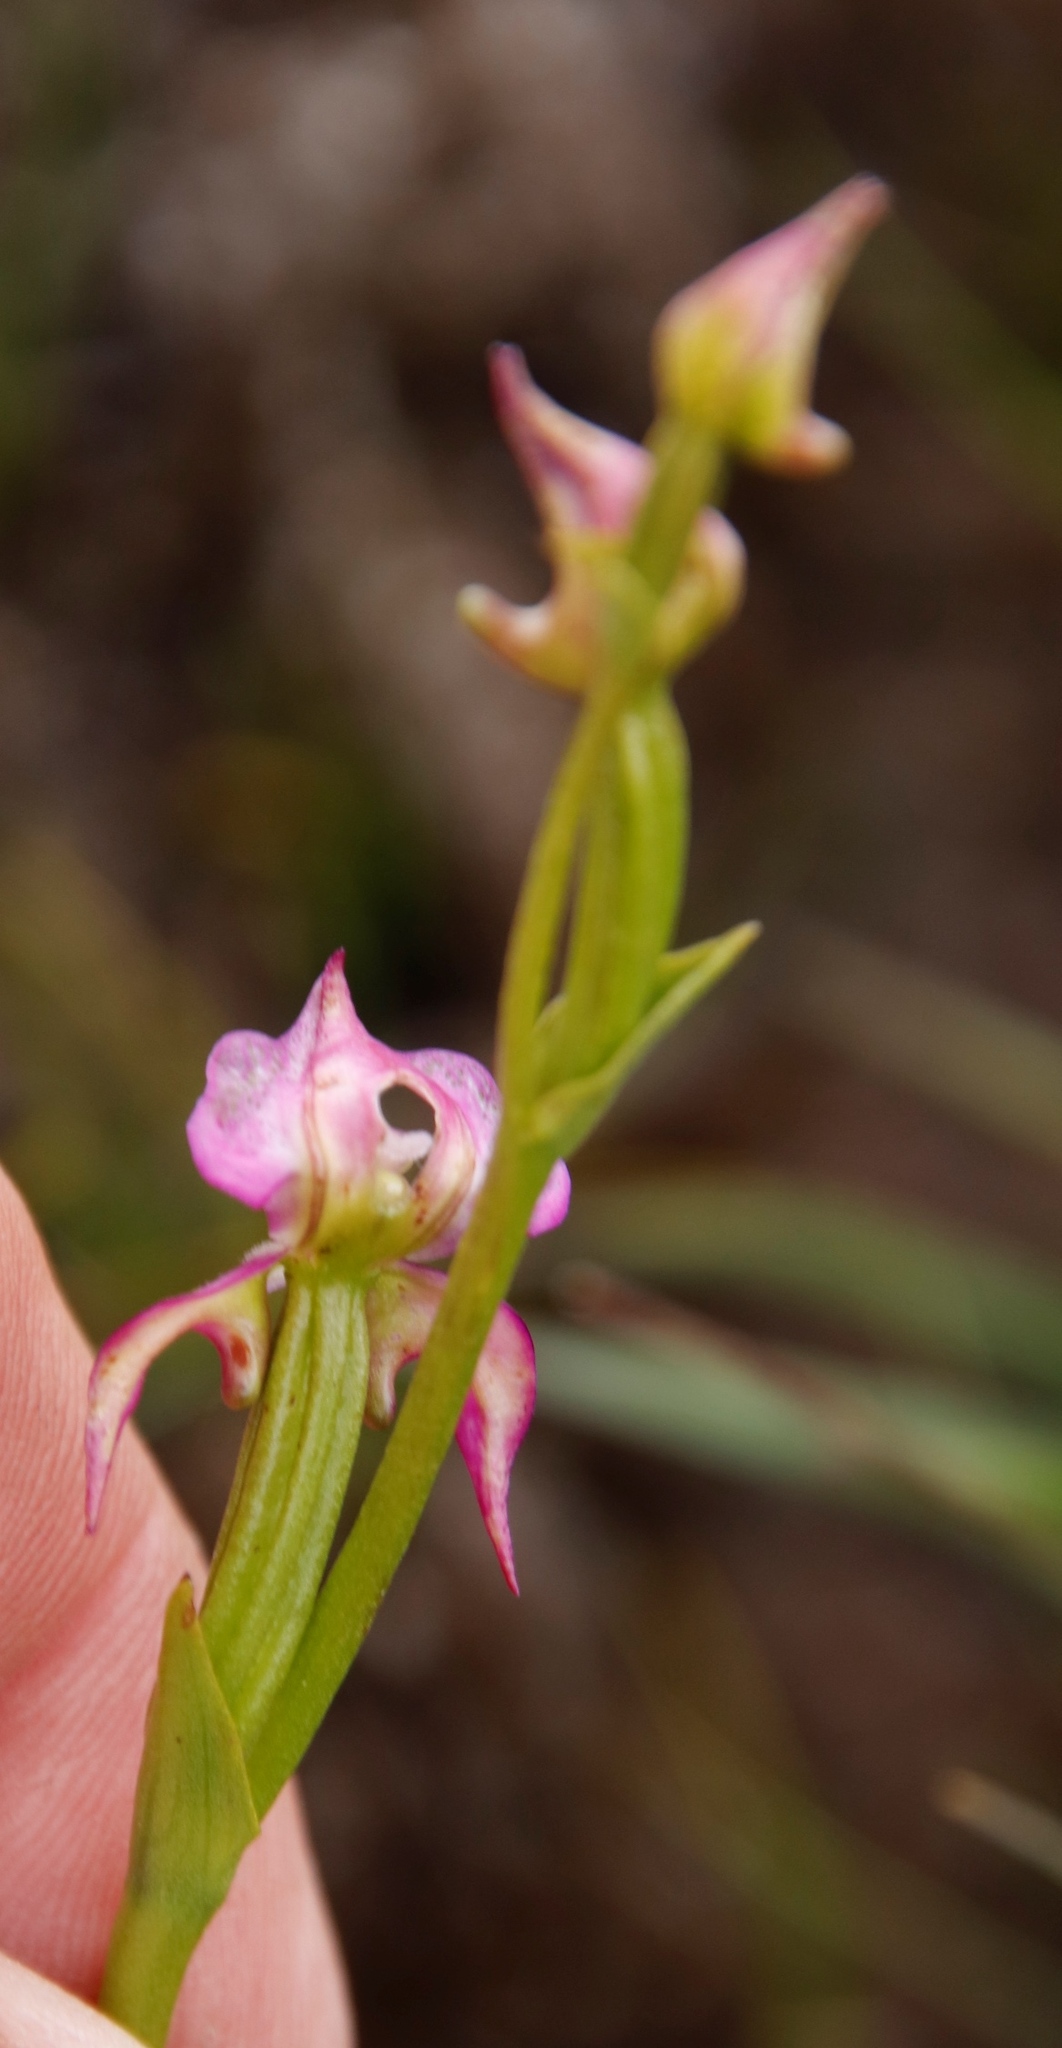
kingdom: Plantae
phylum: Tracheophyta
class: Liliopsida
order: Asparagales
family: Orchidaceae
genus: Disperis
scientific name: Disperis paludosa
